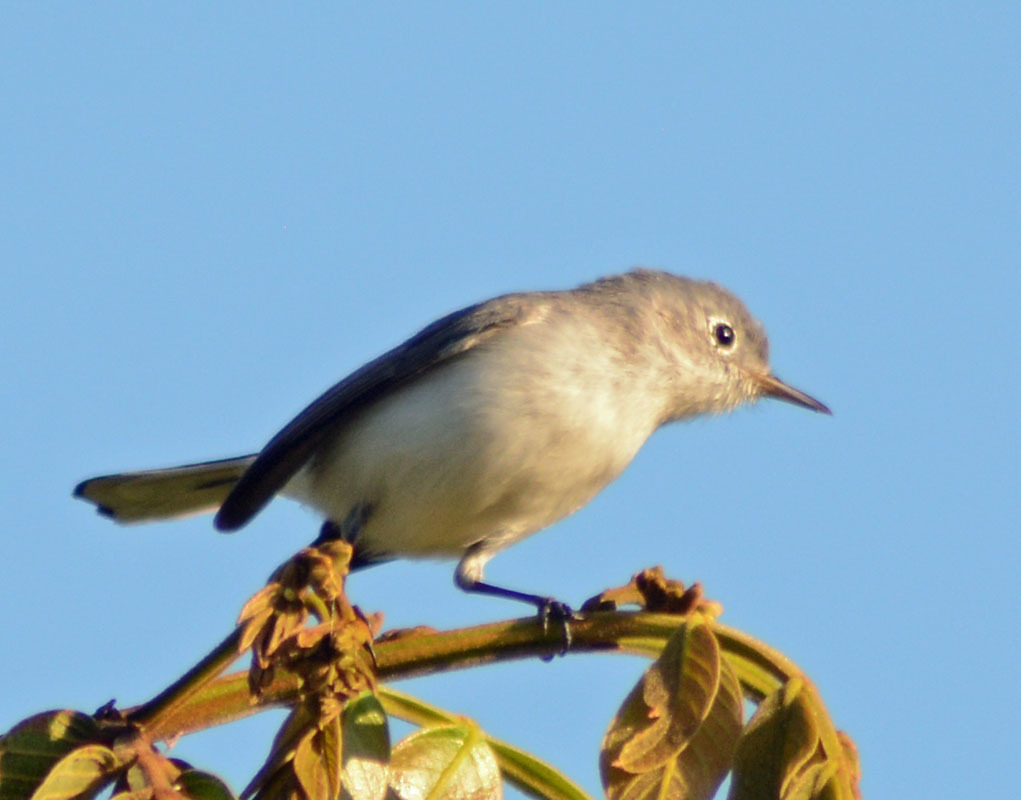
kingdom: Animalia
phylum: Chordata
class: Aves
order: Passeriformes
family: Polioptilidae
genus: Polioptila
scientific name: Polioptila caerulea
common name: Blue-gray gnatcatcher
